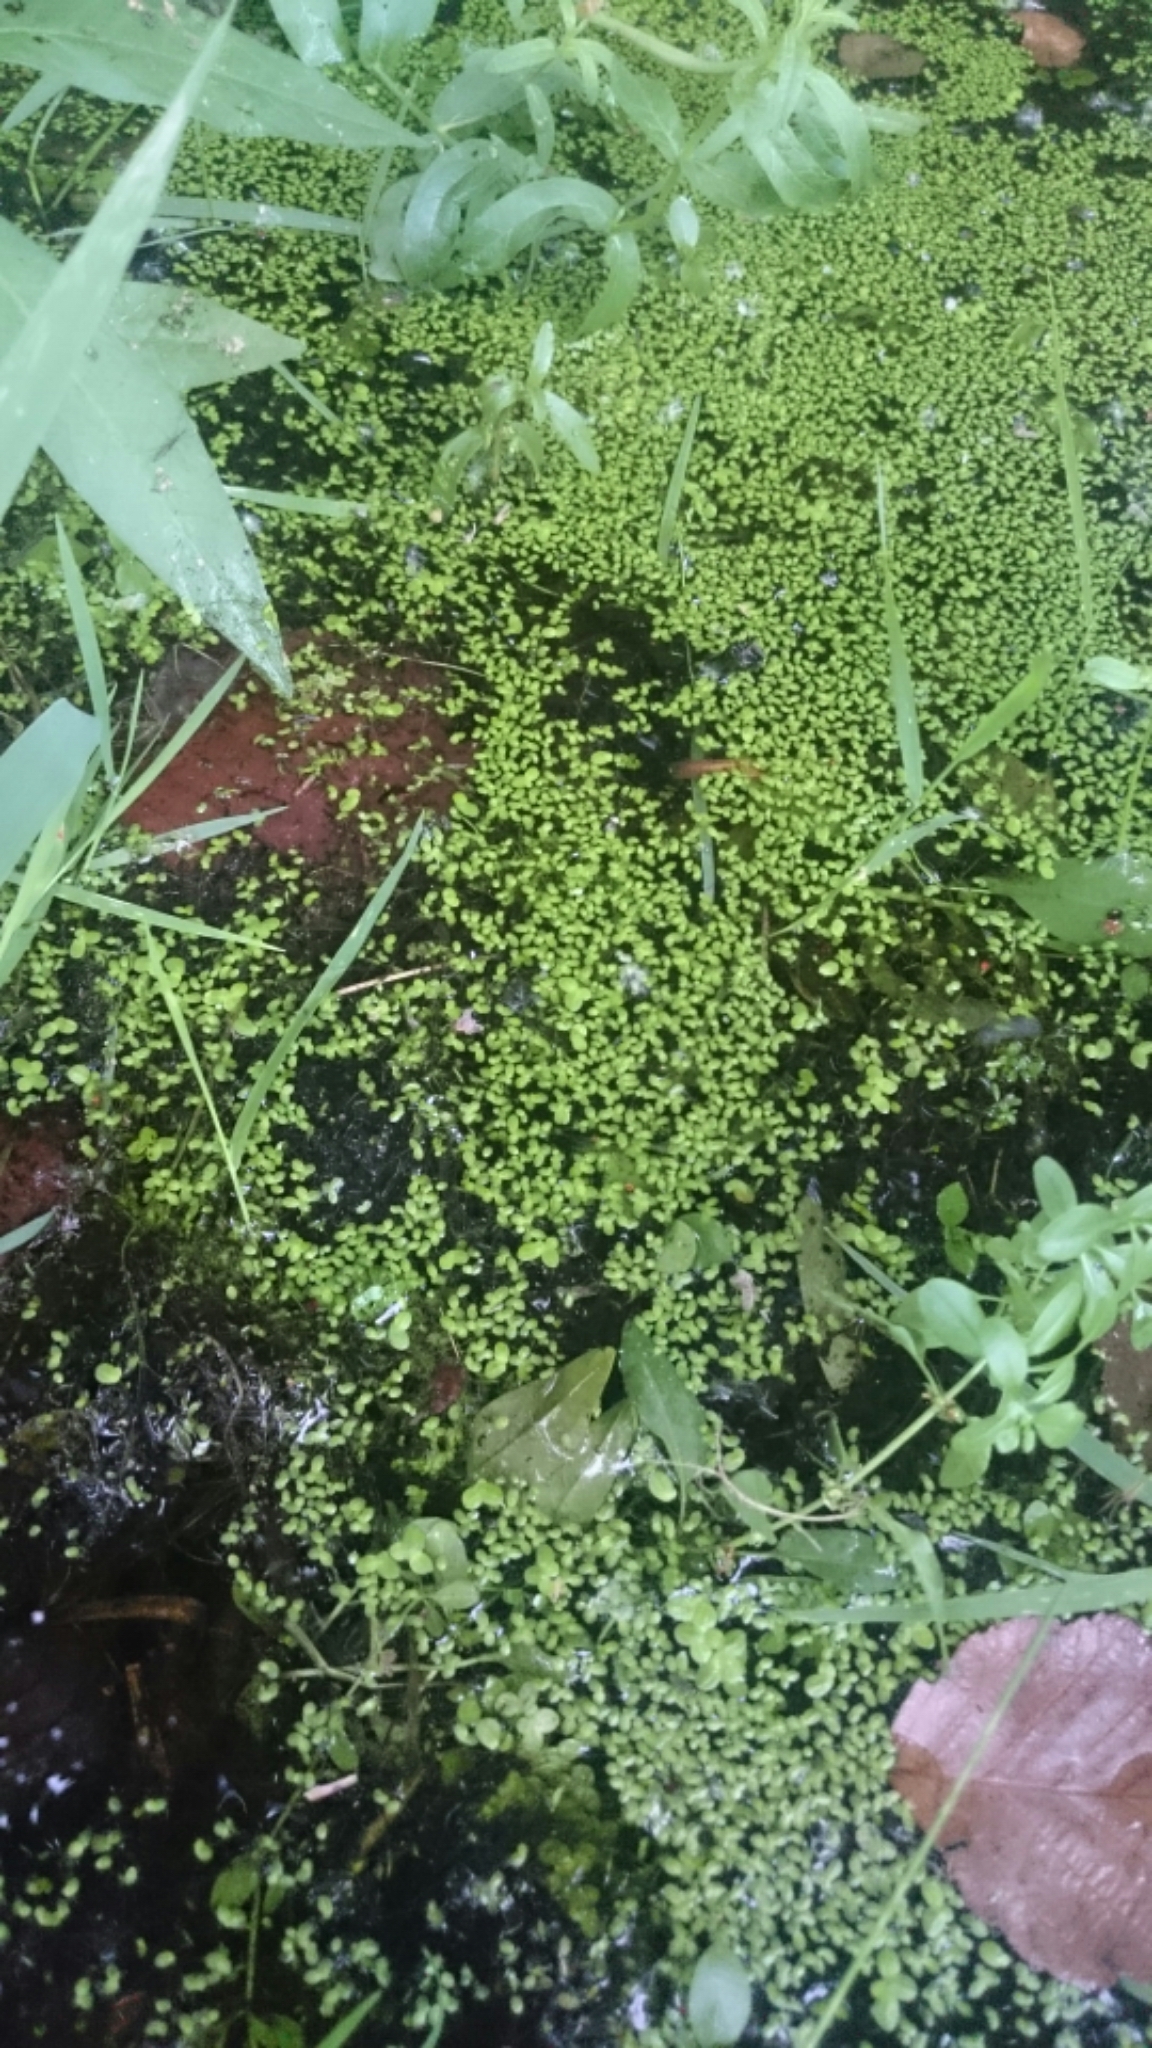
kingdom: Plantae
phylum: Tracheophyta
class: Liliopsida
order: Alismatales
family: Araceae
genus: Lemna
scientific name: Lemna minuta
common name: Least duckweed
